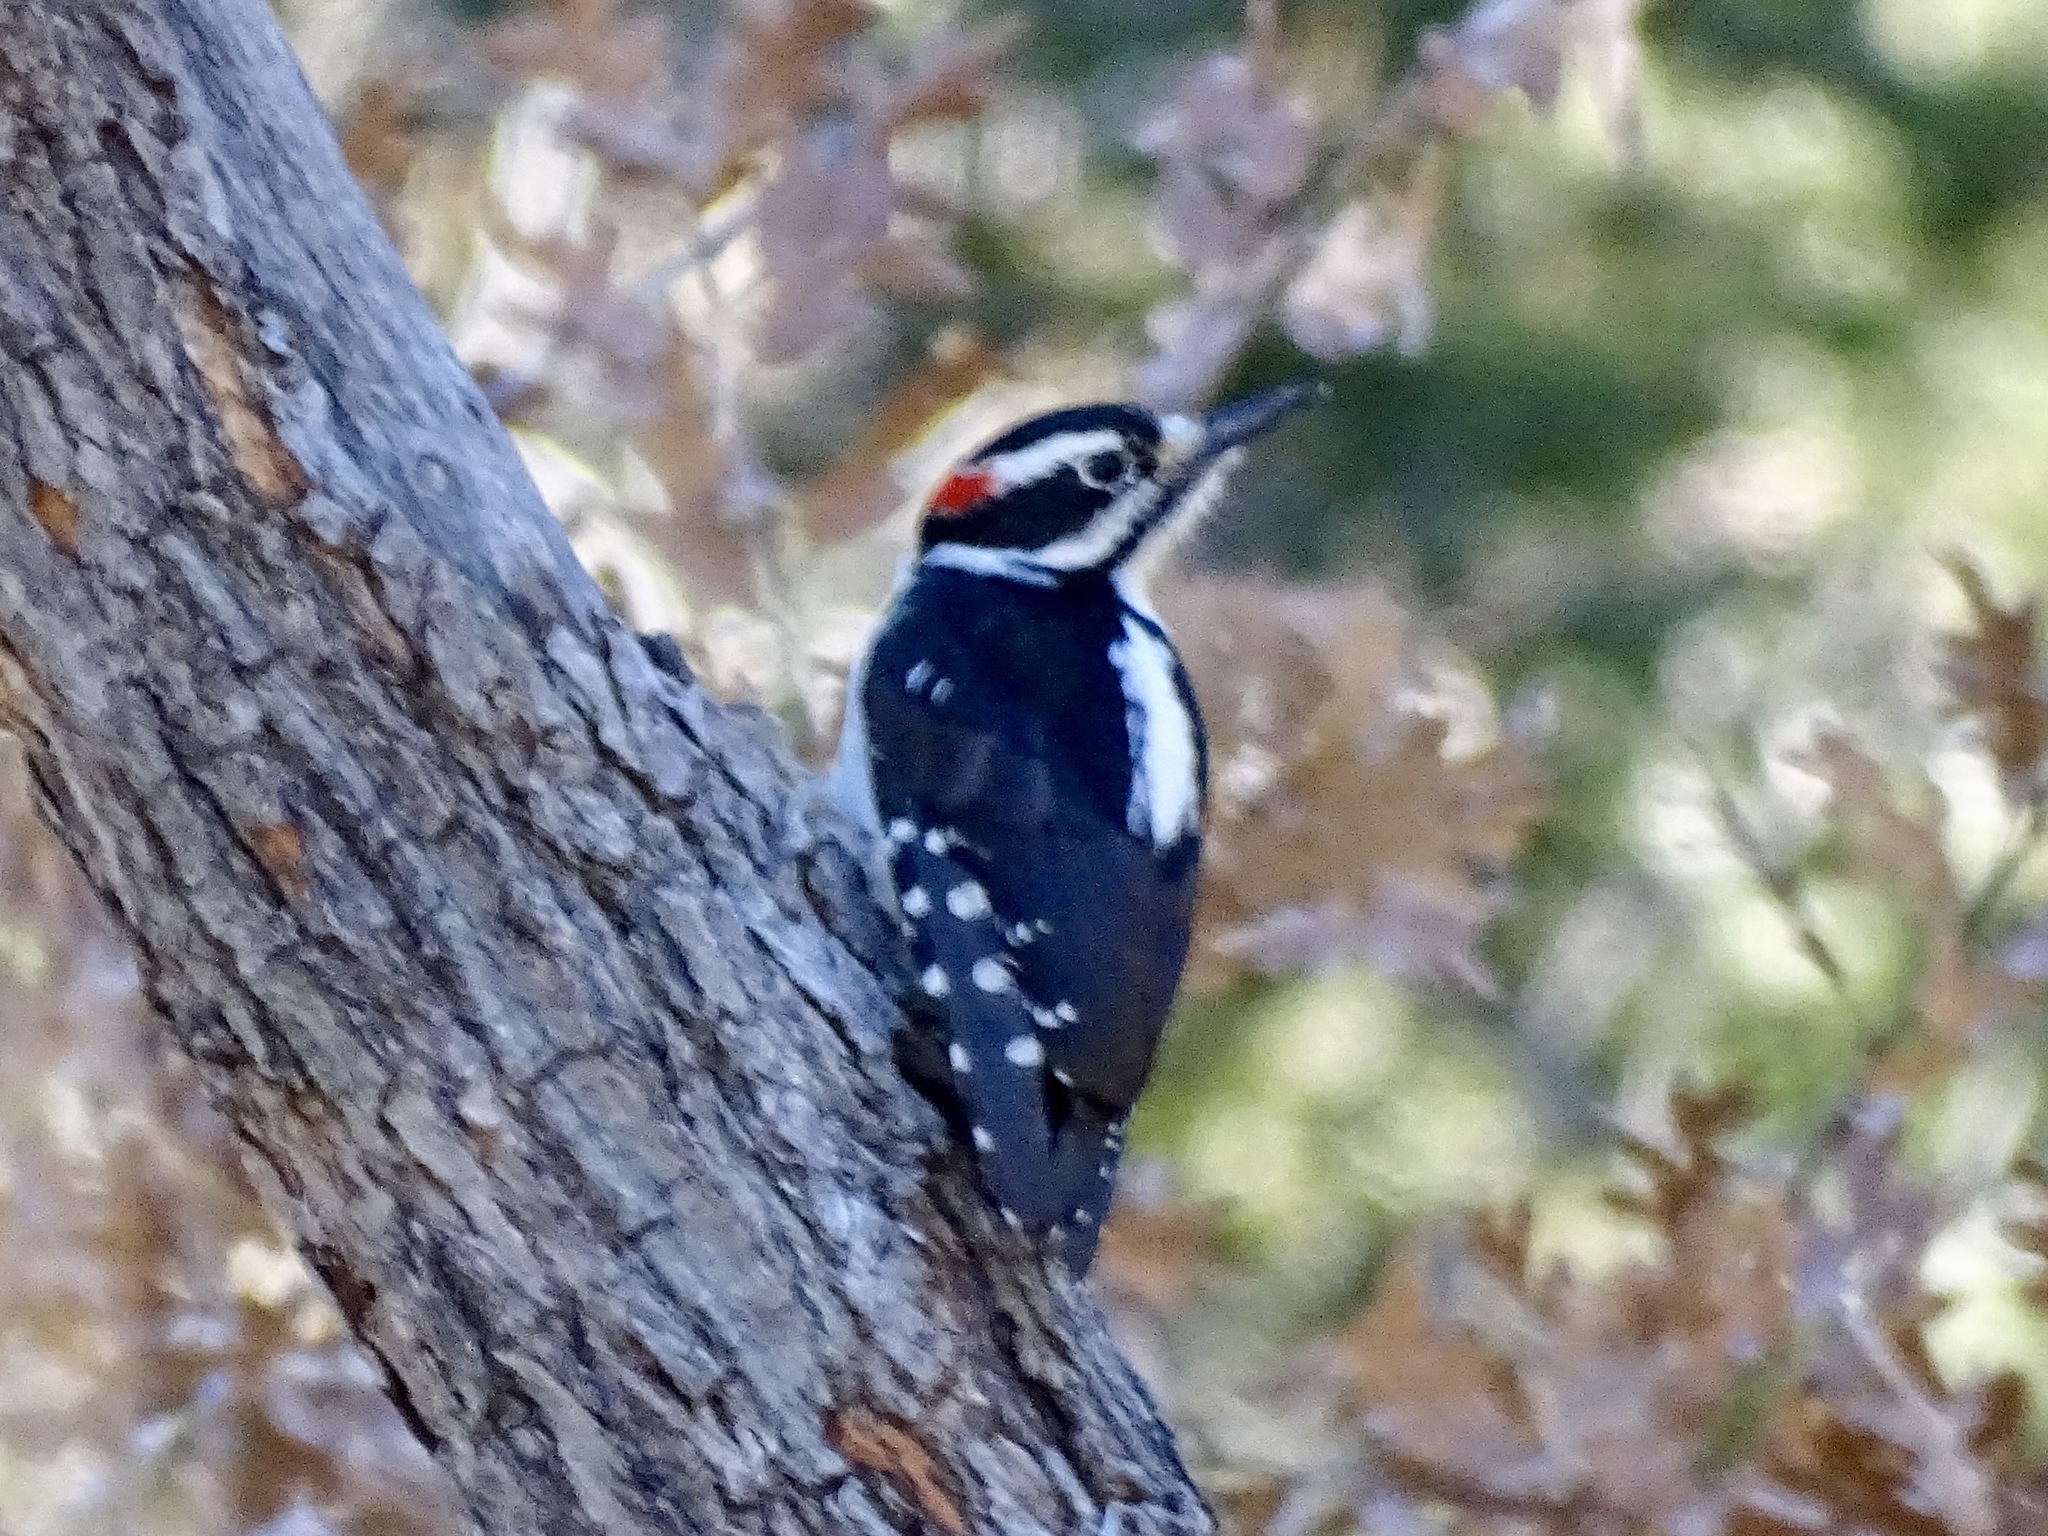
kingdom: Animalia
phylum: Chordata
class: Aves
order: Piciformes
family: Picidae
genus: Leuconotopicus
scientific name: Leuconotopicus villosus
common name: Hairy woodpecker
